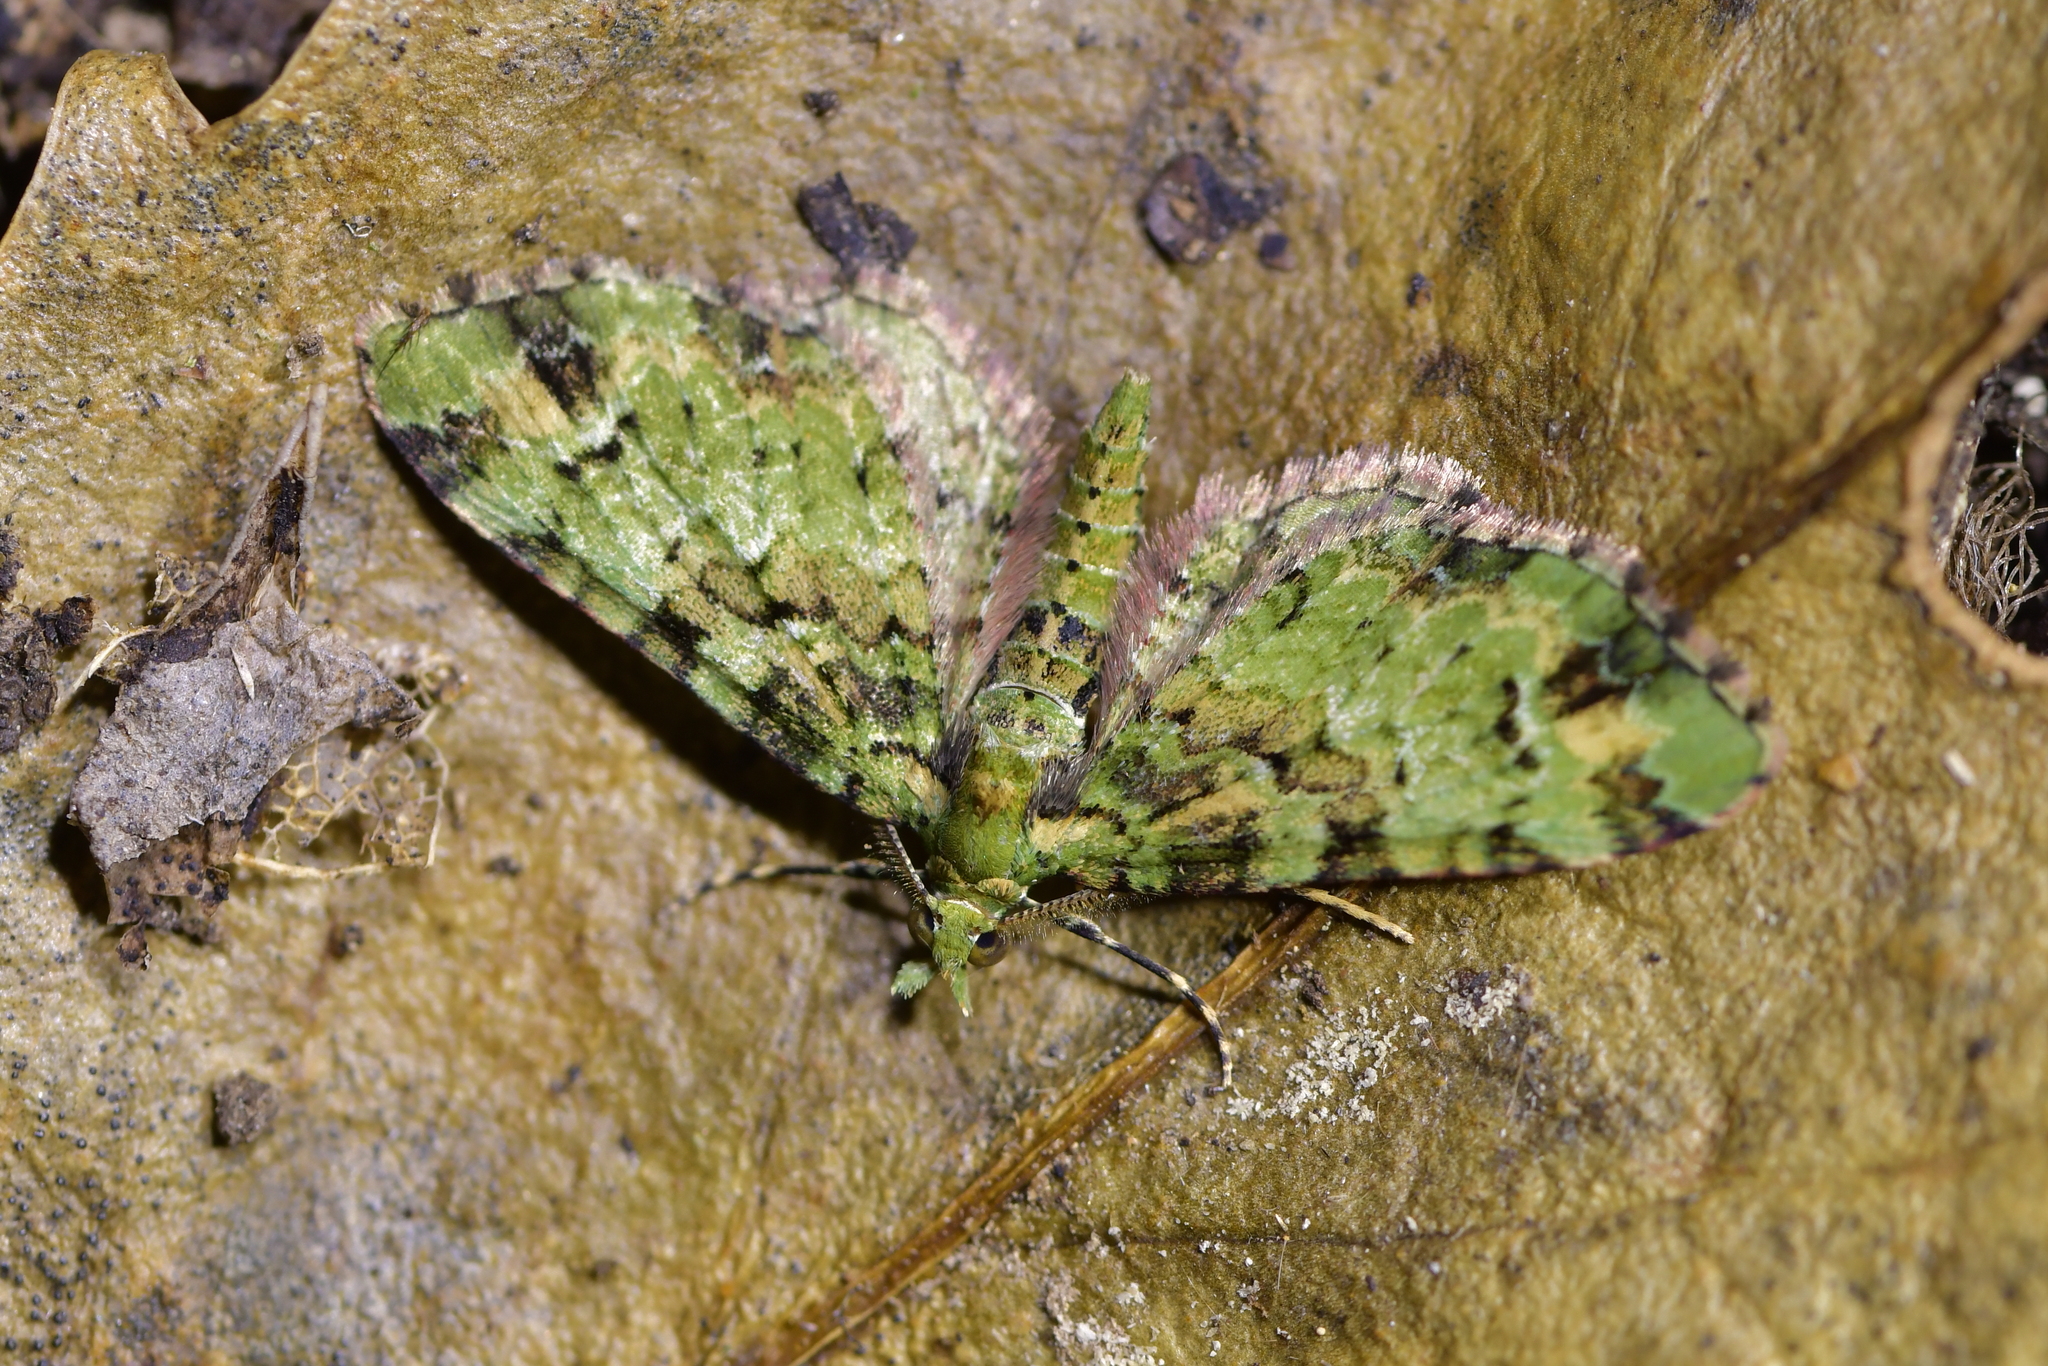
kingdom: Animalia
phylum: Arthropoda
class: Insecta
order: Lepidoptera
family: Geometridae
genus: Pasiphila
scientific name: Pasiphila bilineolata
